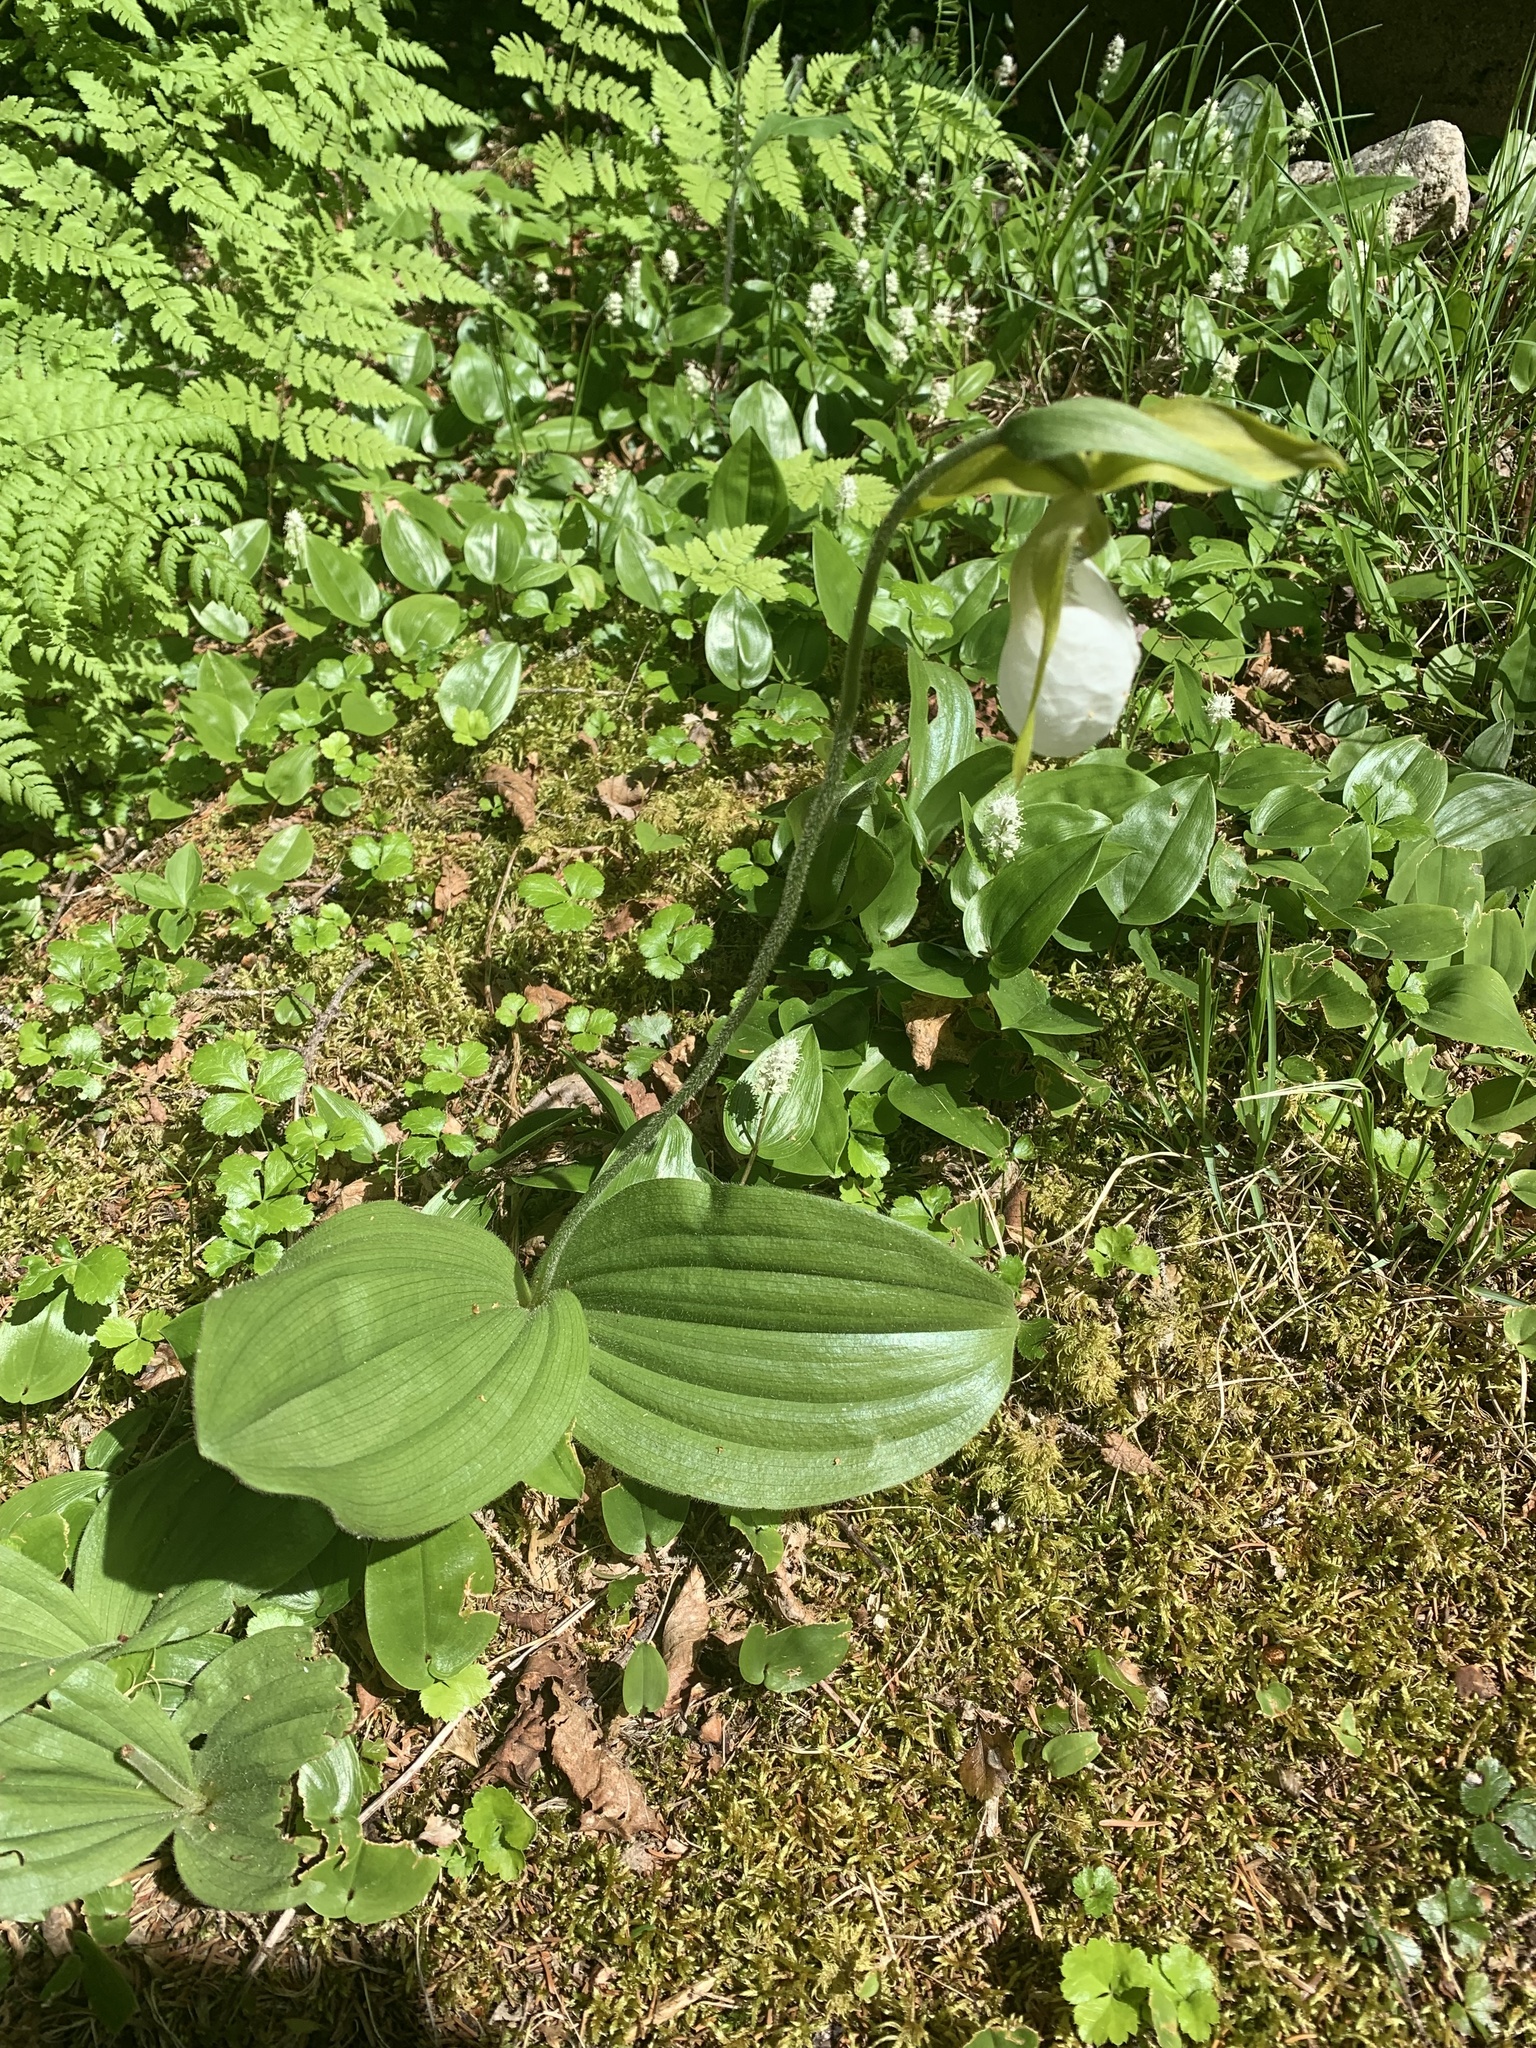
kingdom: Plantae
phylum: Tracheophyta
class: Liliopsida
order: Asparagales
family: Orchidaceae
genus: Cypripedium
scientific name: Cypripedium acaule
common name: Pink lady's-slipper
